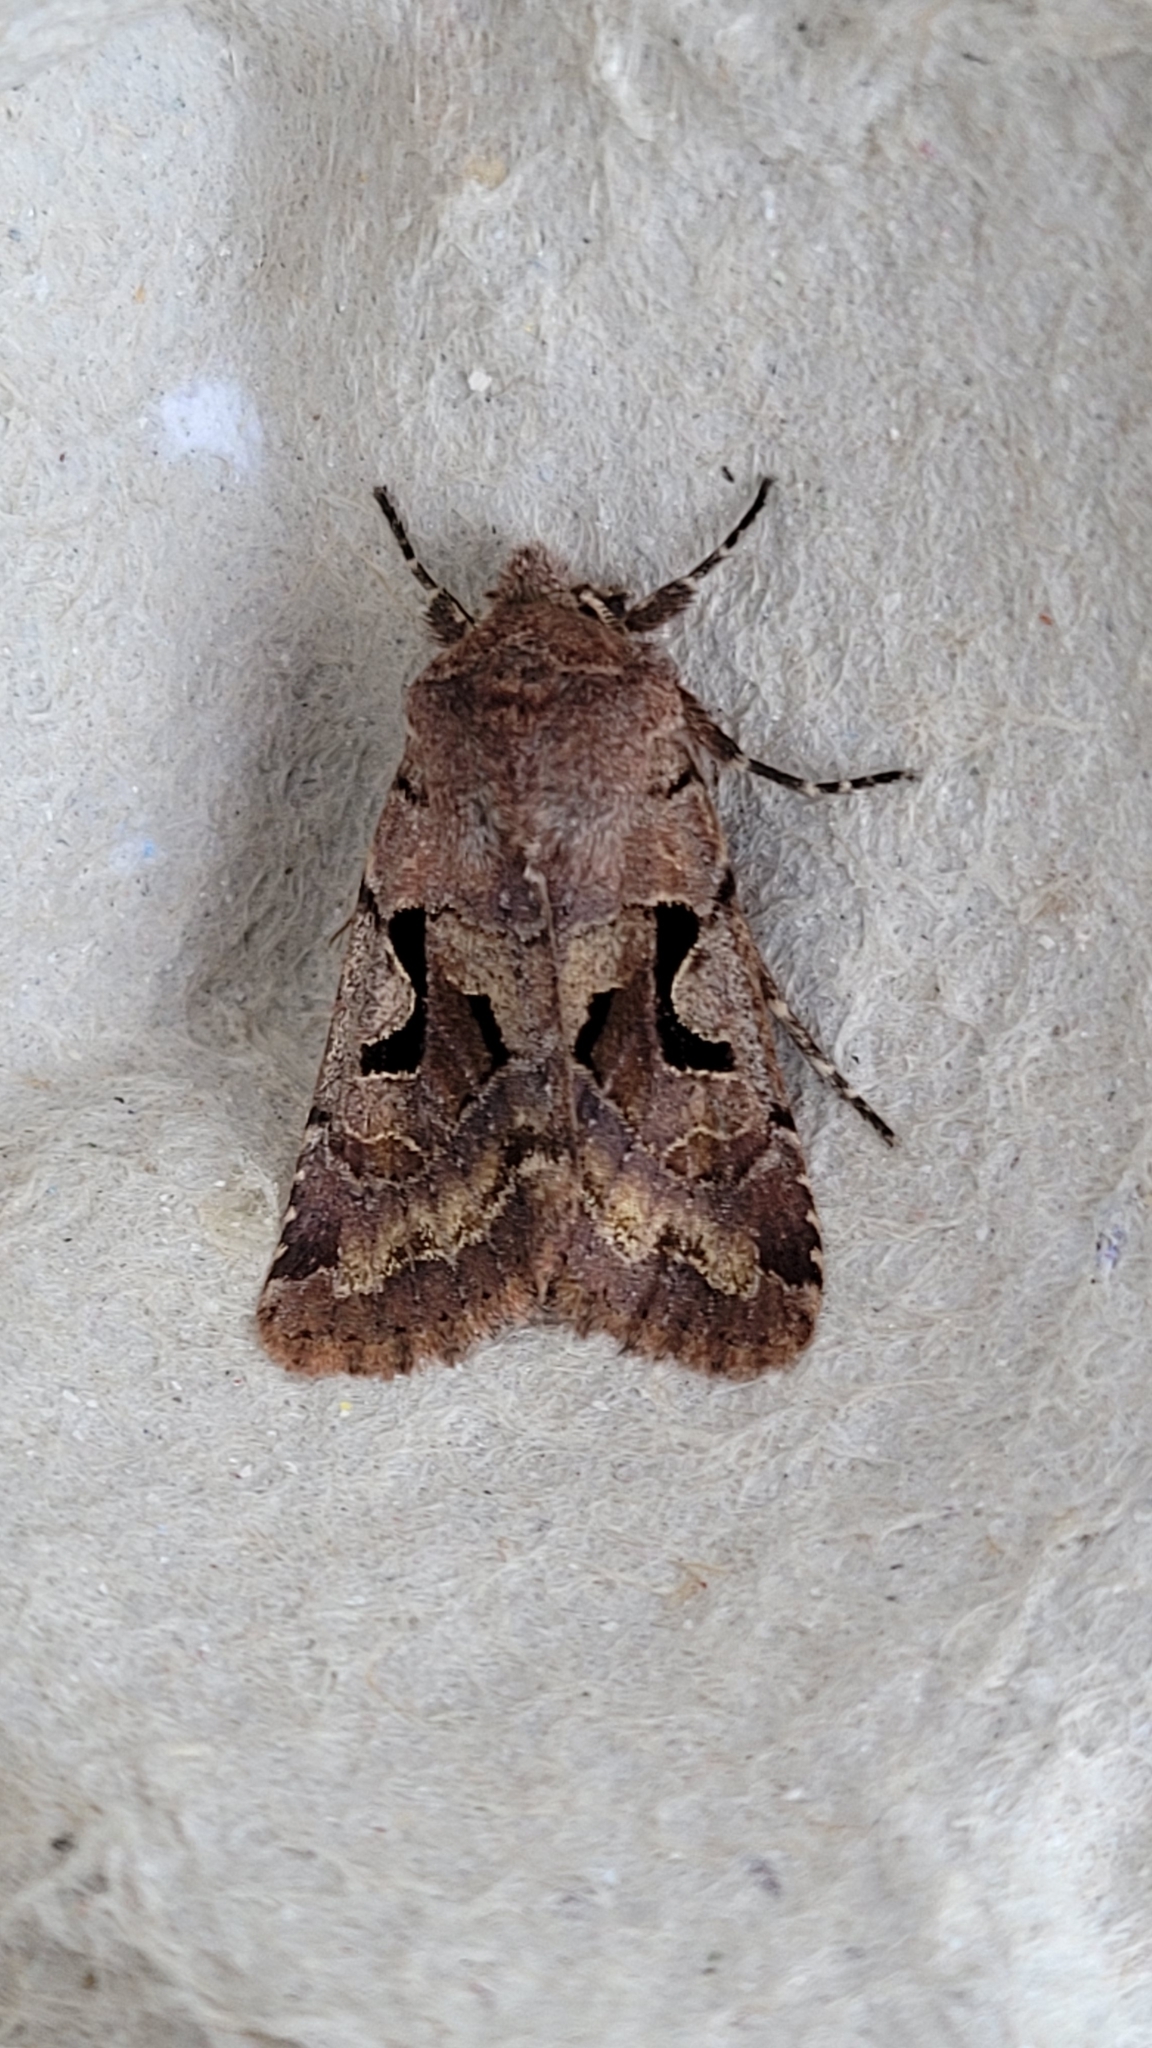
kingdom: Animalia
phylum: Arthropoda
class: Insecta
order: Lepidoptera
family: Noctuidae
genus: Orthosia
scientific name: Orthosia gothica
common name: Hebrew character
